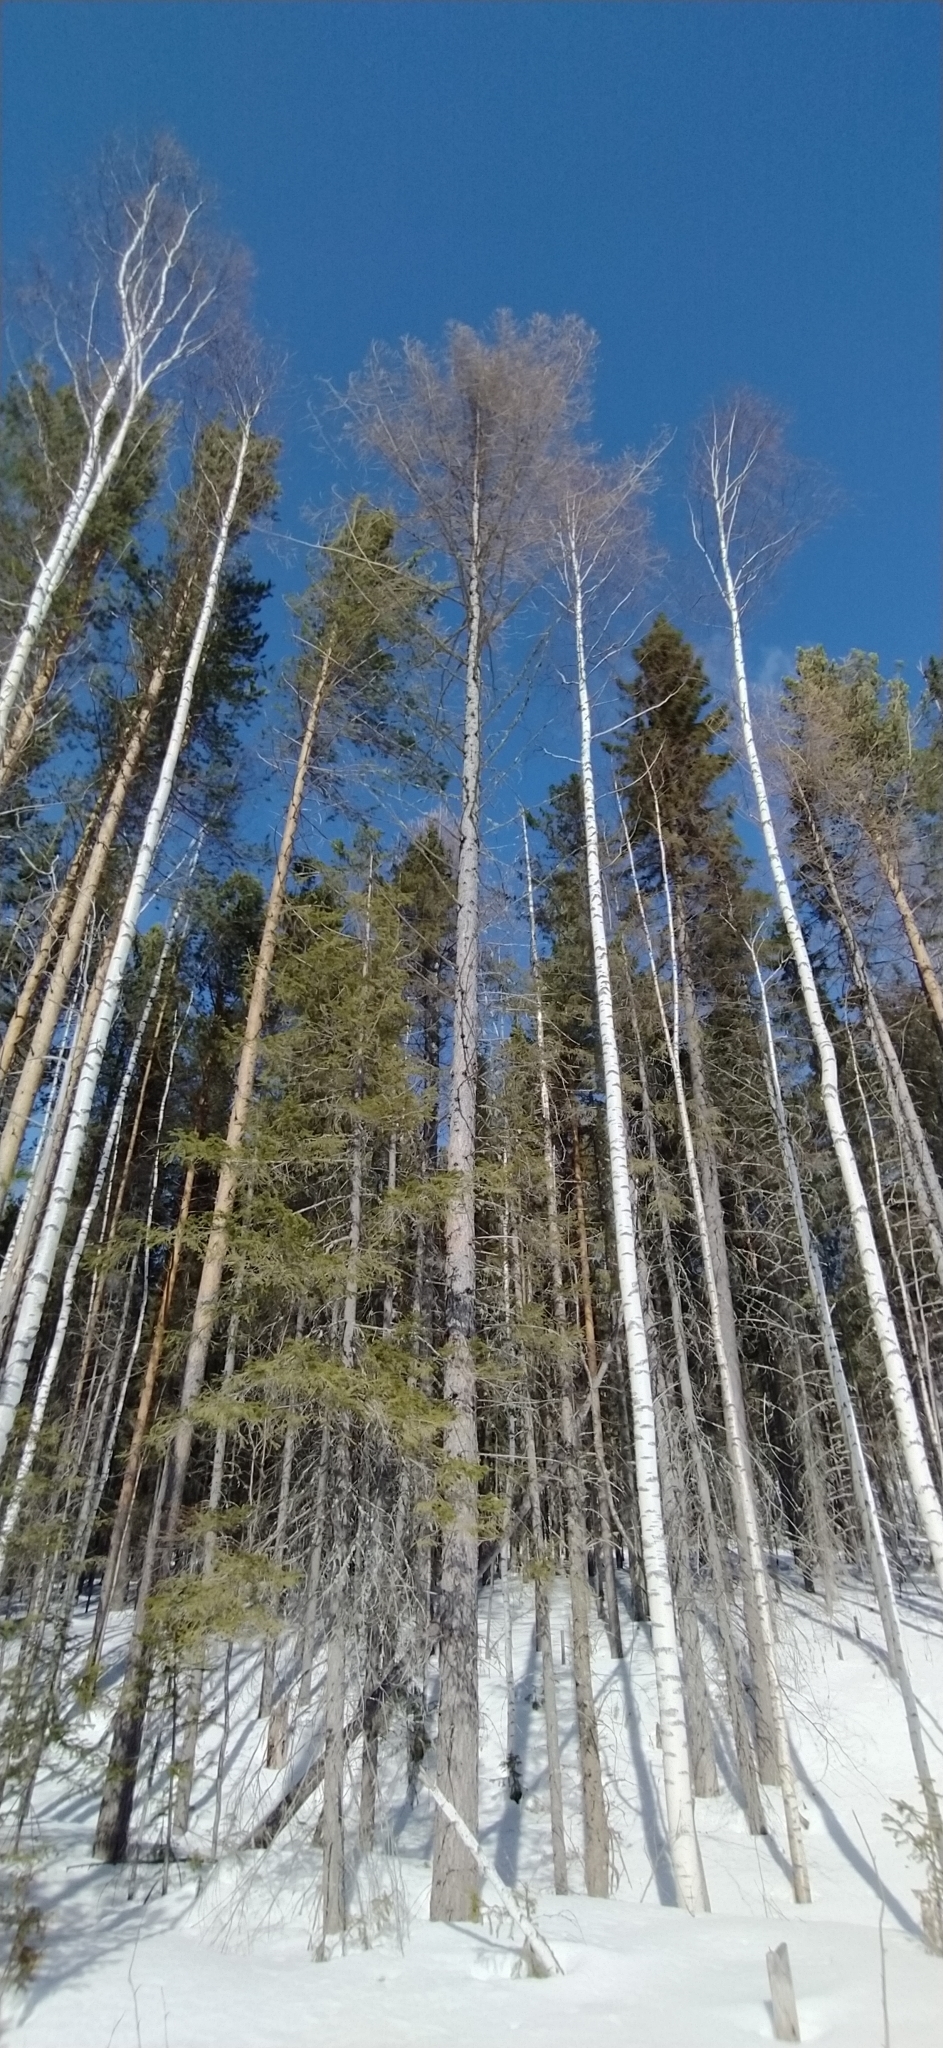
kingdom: Plantae
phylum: Tracheophyta
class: Pinopsida
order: Pinales
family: Pinaceae
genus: Larix
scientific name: Larix sibirica
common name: Siberian larch
